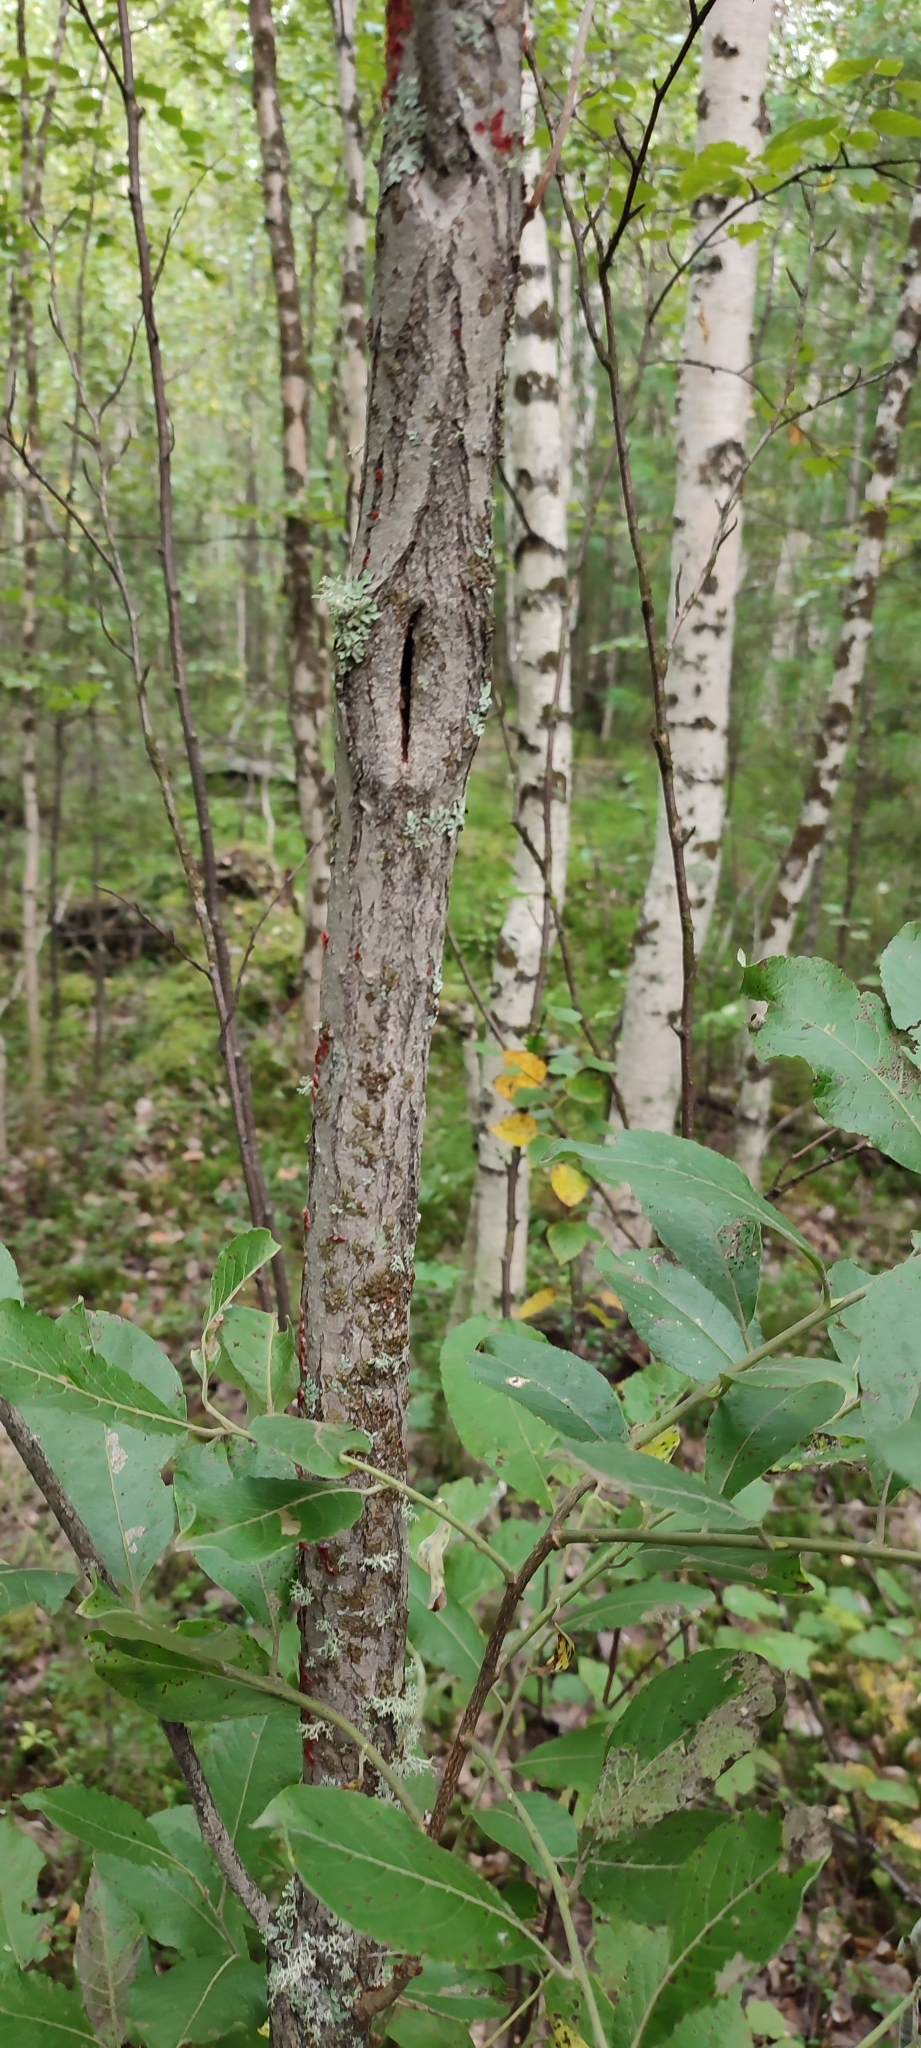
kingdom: Plantae
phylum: Tracheophyta
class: Magnoliopsida
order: Malpighiales
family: Salicaceae
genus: Salix
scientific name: Salix caprea
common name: Goat willow
